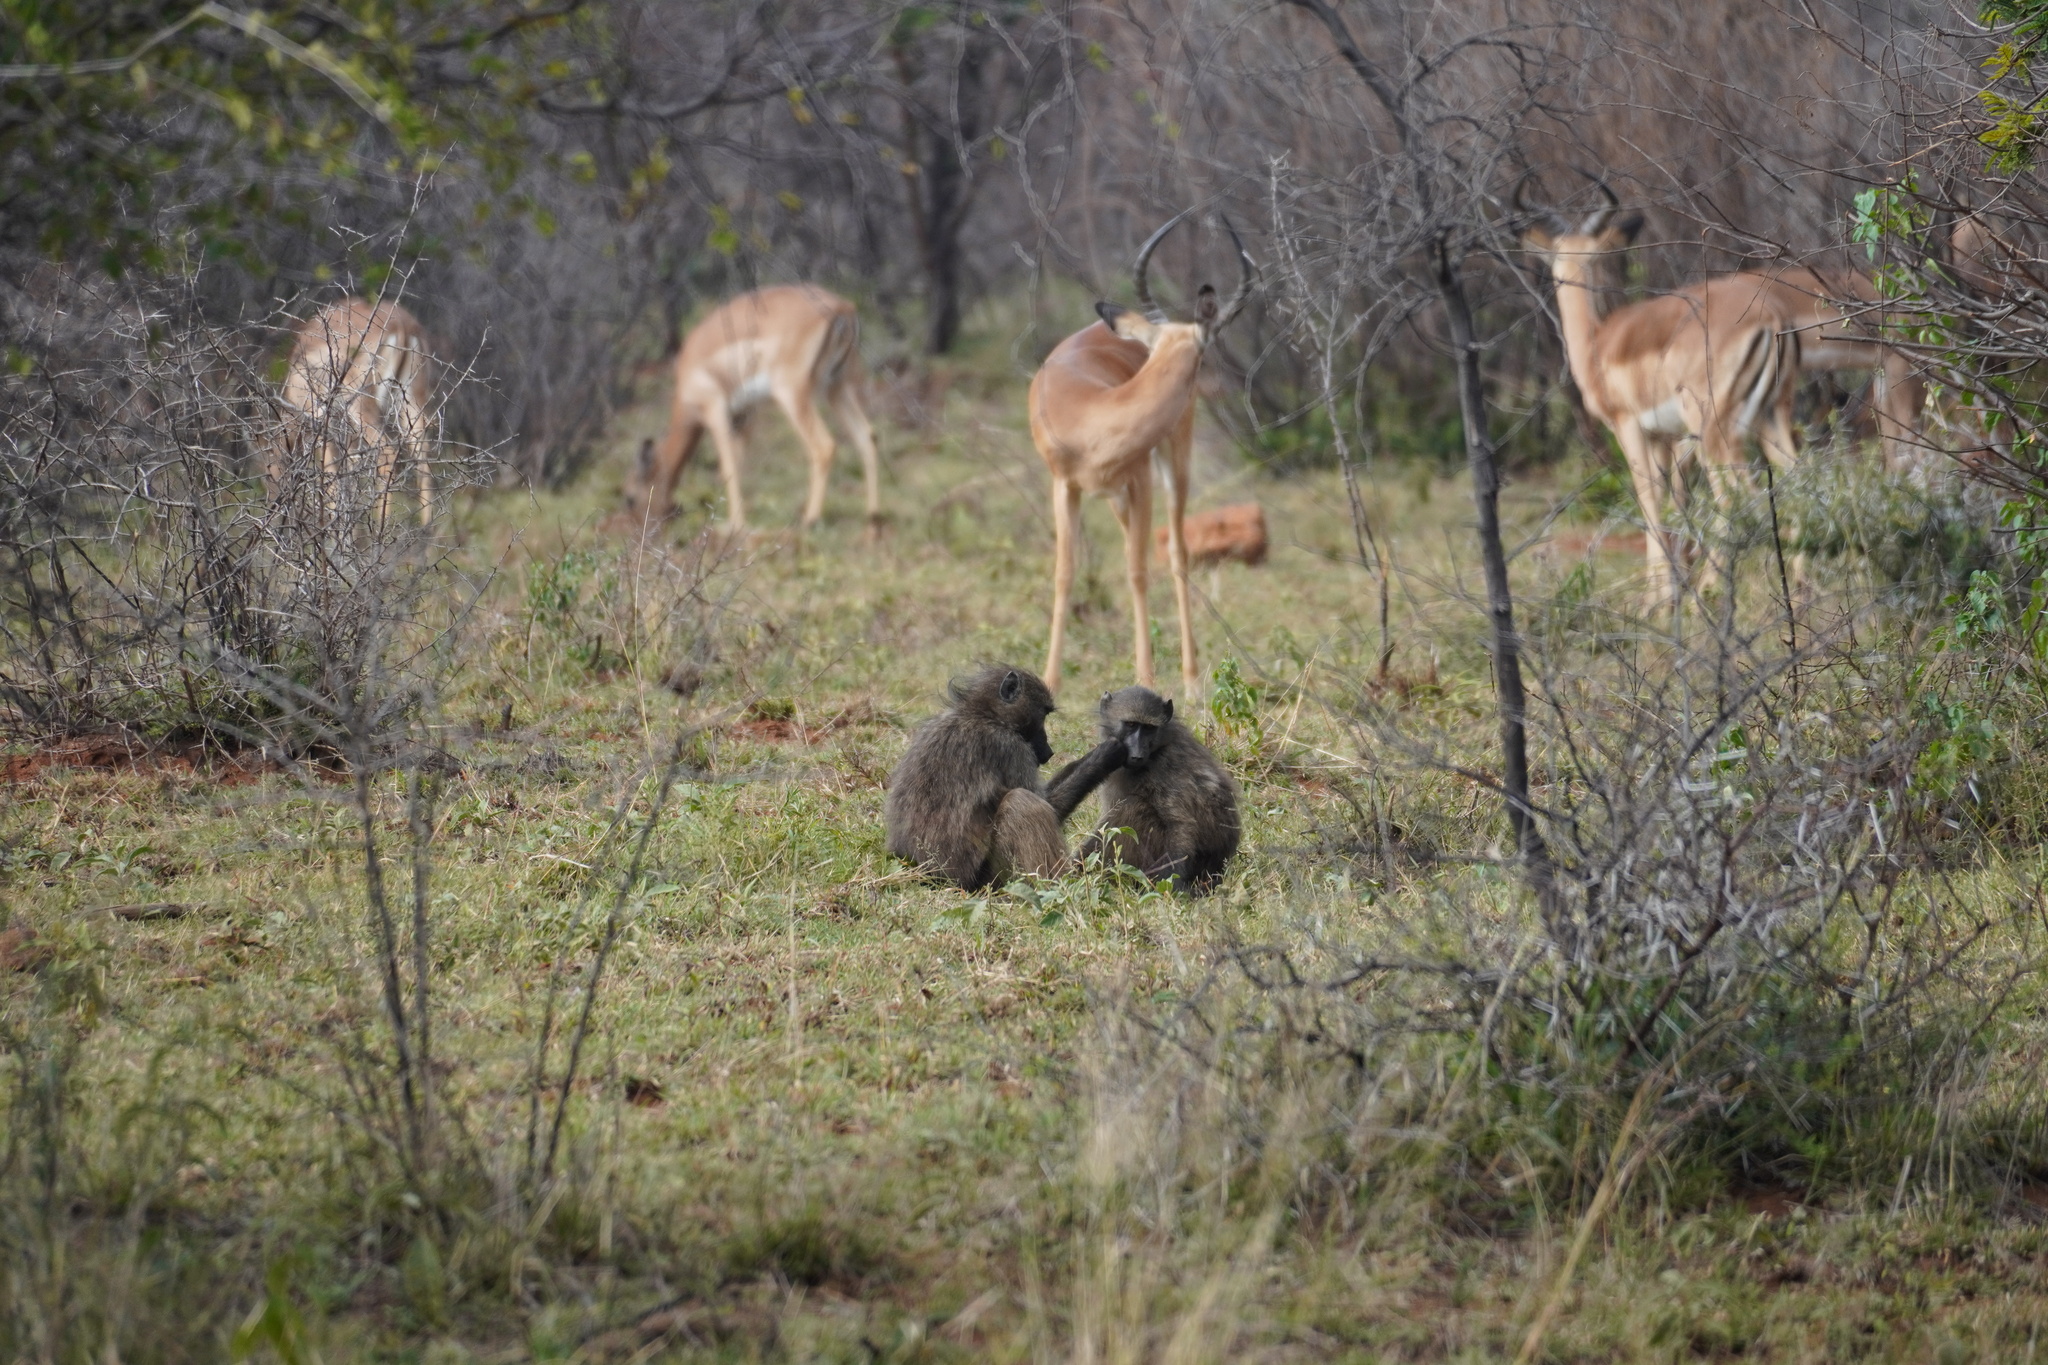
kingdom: Animalia
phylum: Chordata
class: Mammalia
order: Primates
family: Cercopithecidae
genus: Papio
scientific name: Papio ursinus
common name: Chacma baboon
